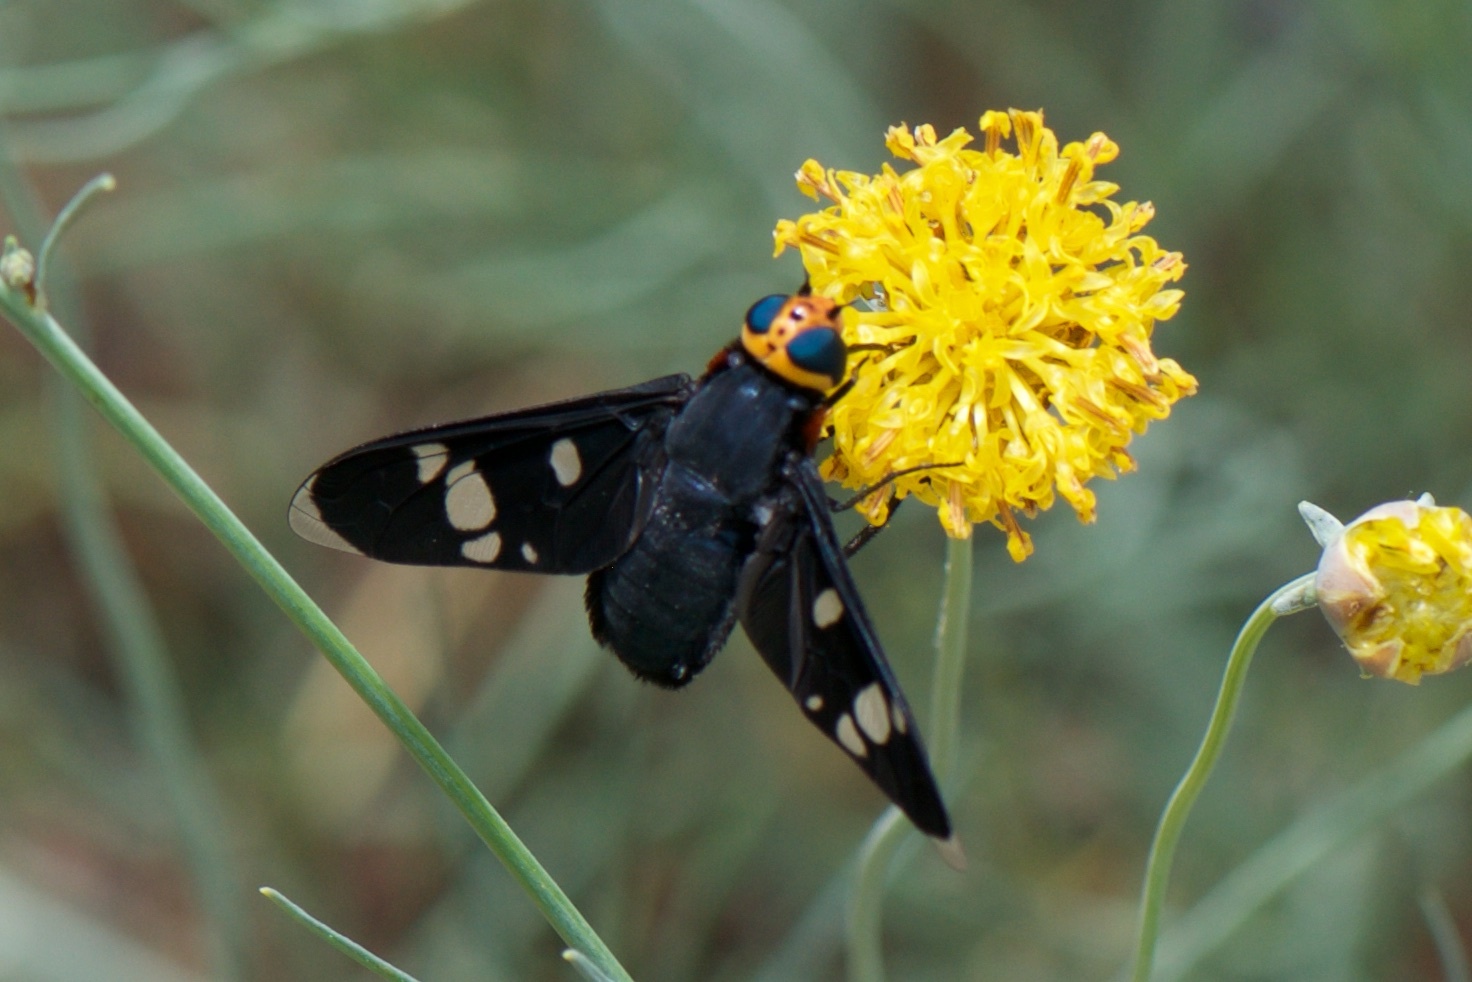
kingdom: Animalia
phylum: Arthropoda
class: Insecta
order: Diptera
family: Bombyliidae
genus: Hyperalonia
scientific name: Hyperalonia morio
